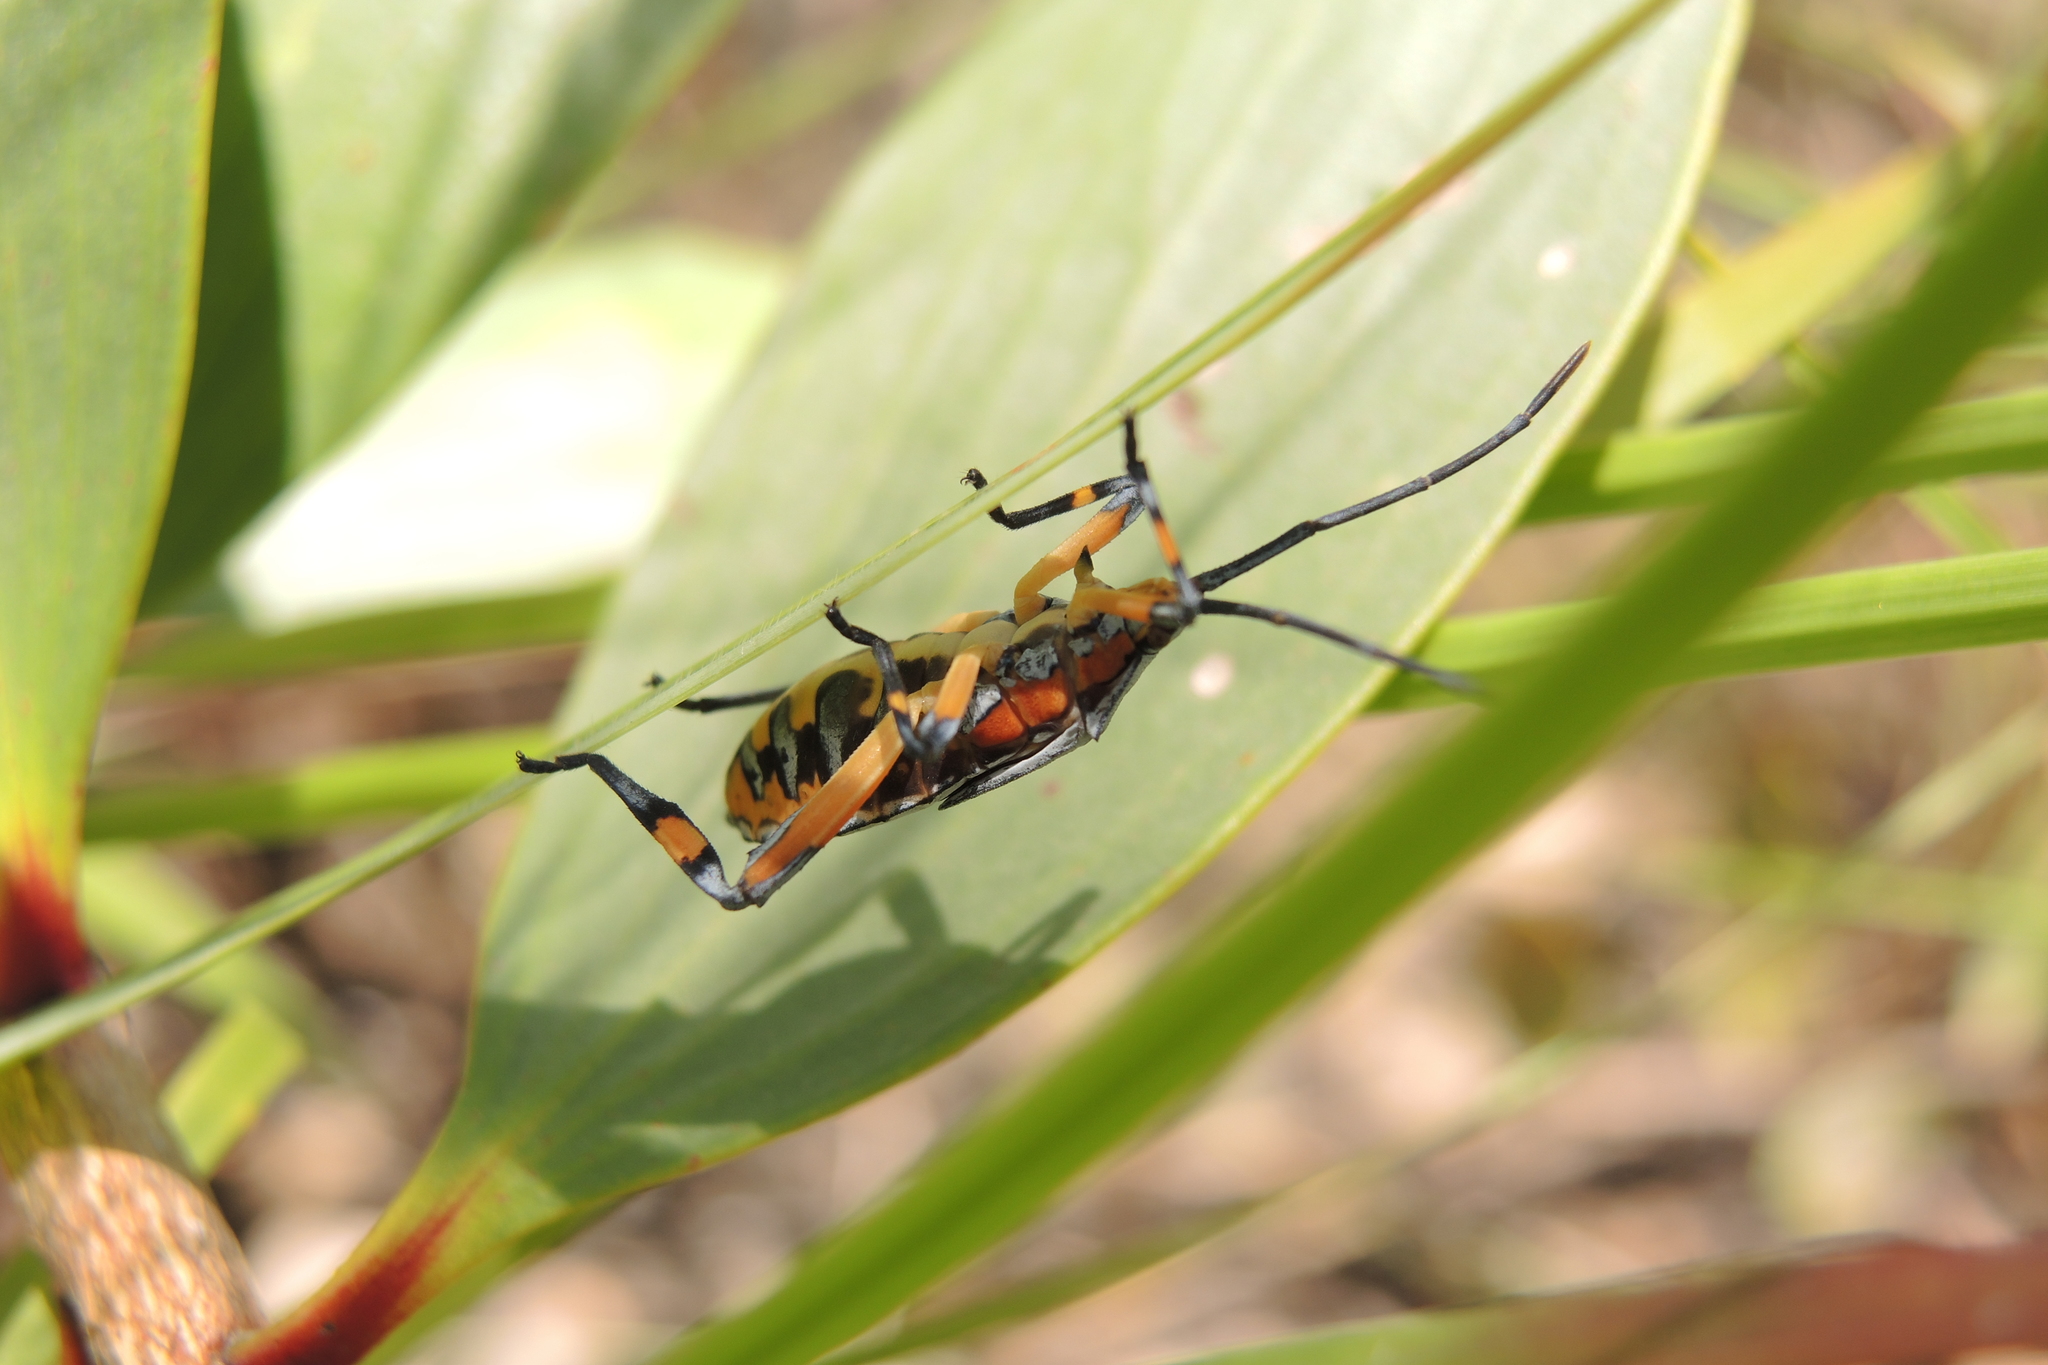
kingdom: Animalia
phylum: Arthropoda
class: Insecta
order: Hemiptera
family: Coreidae
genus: Amorbus
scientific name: Amorbus robustus
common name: Common gum-tree bug
